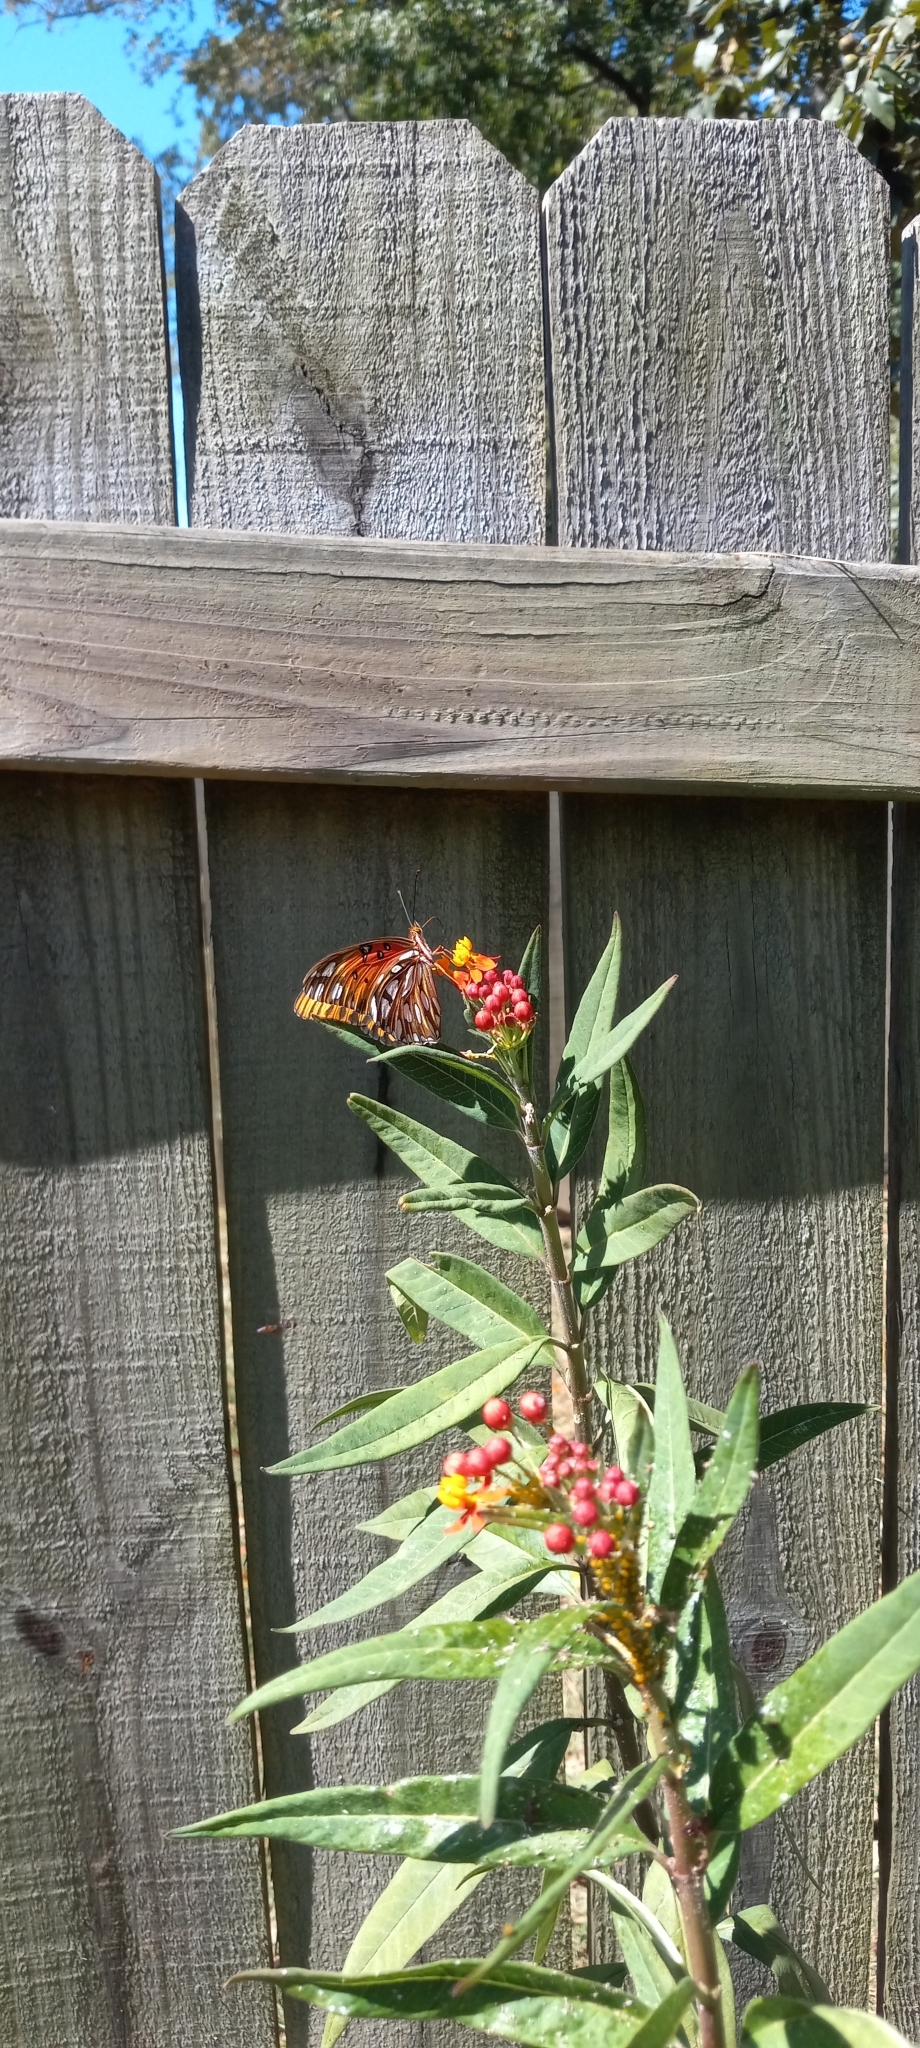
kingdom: Animalia
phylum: Arthropoda
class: Insecta
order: Lepidoptera
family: Nymphalidae
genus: Dione
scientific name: Dione vanillae
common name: Gulf fritillary
